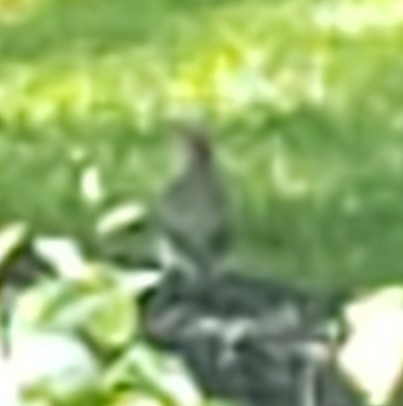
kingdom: Animalia
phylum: Chordata
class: Aves
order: Piciformes
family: Picidae
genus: Colaptes
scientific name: Colaptes auratus
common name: Northern flicker
